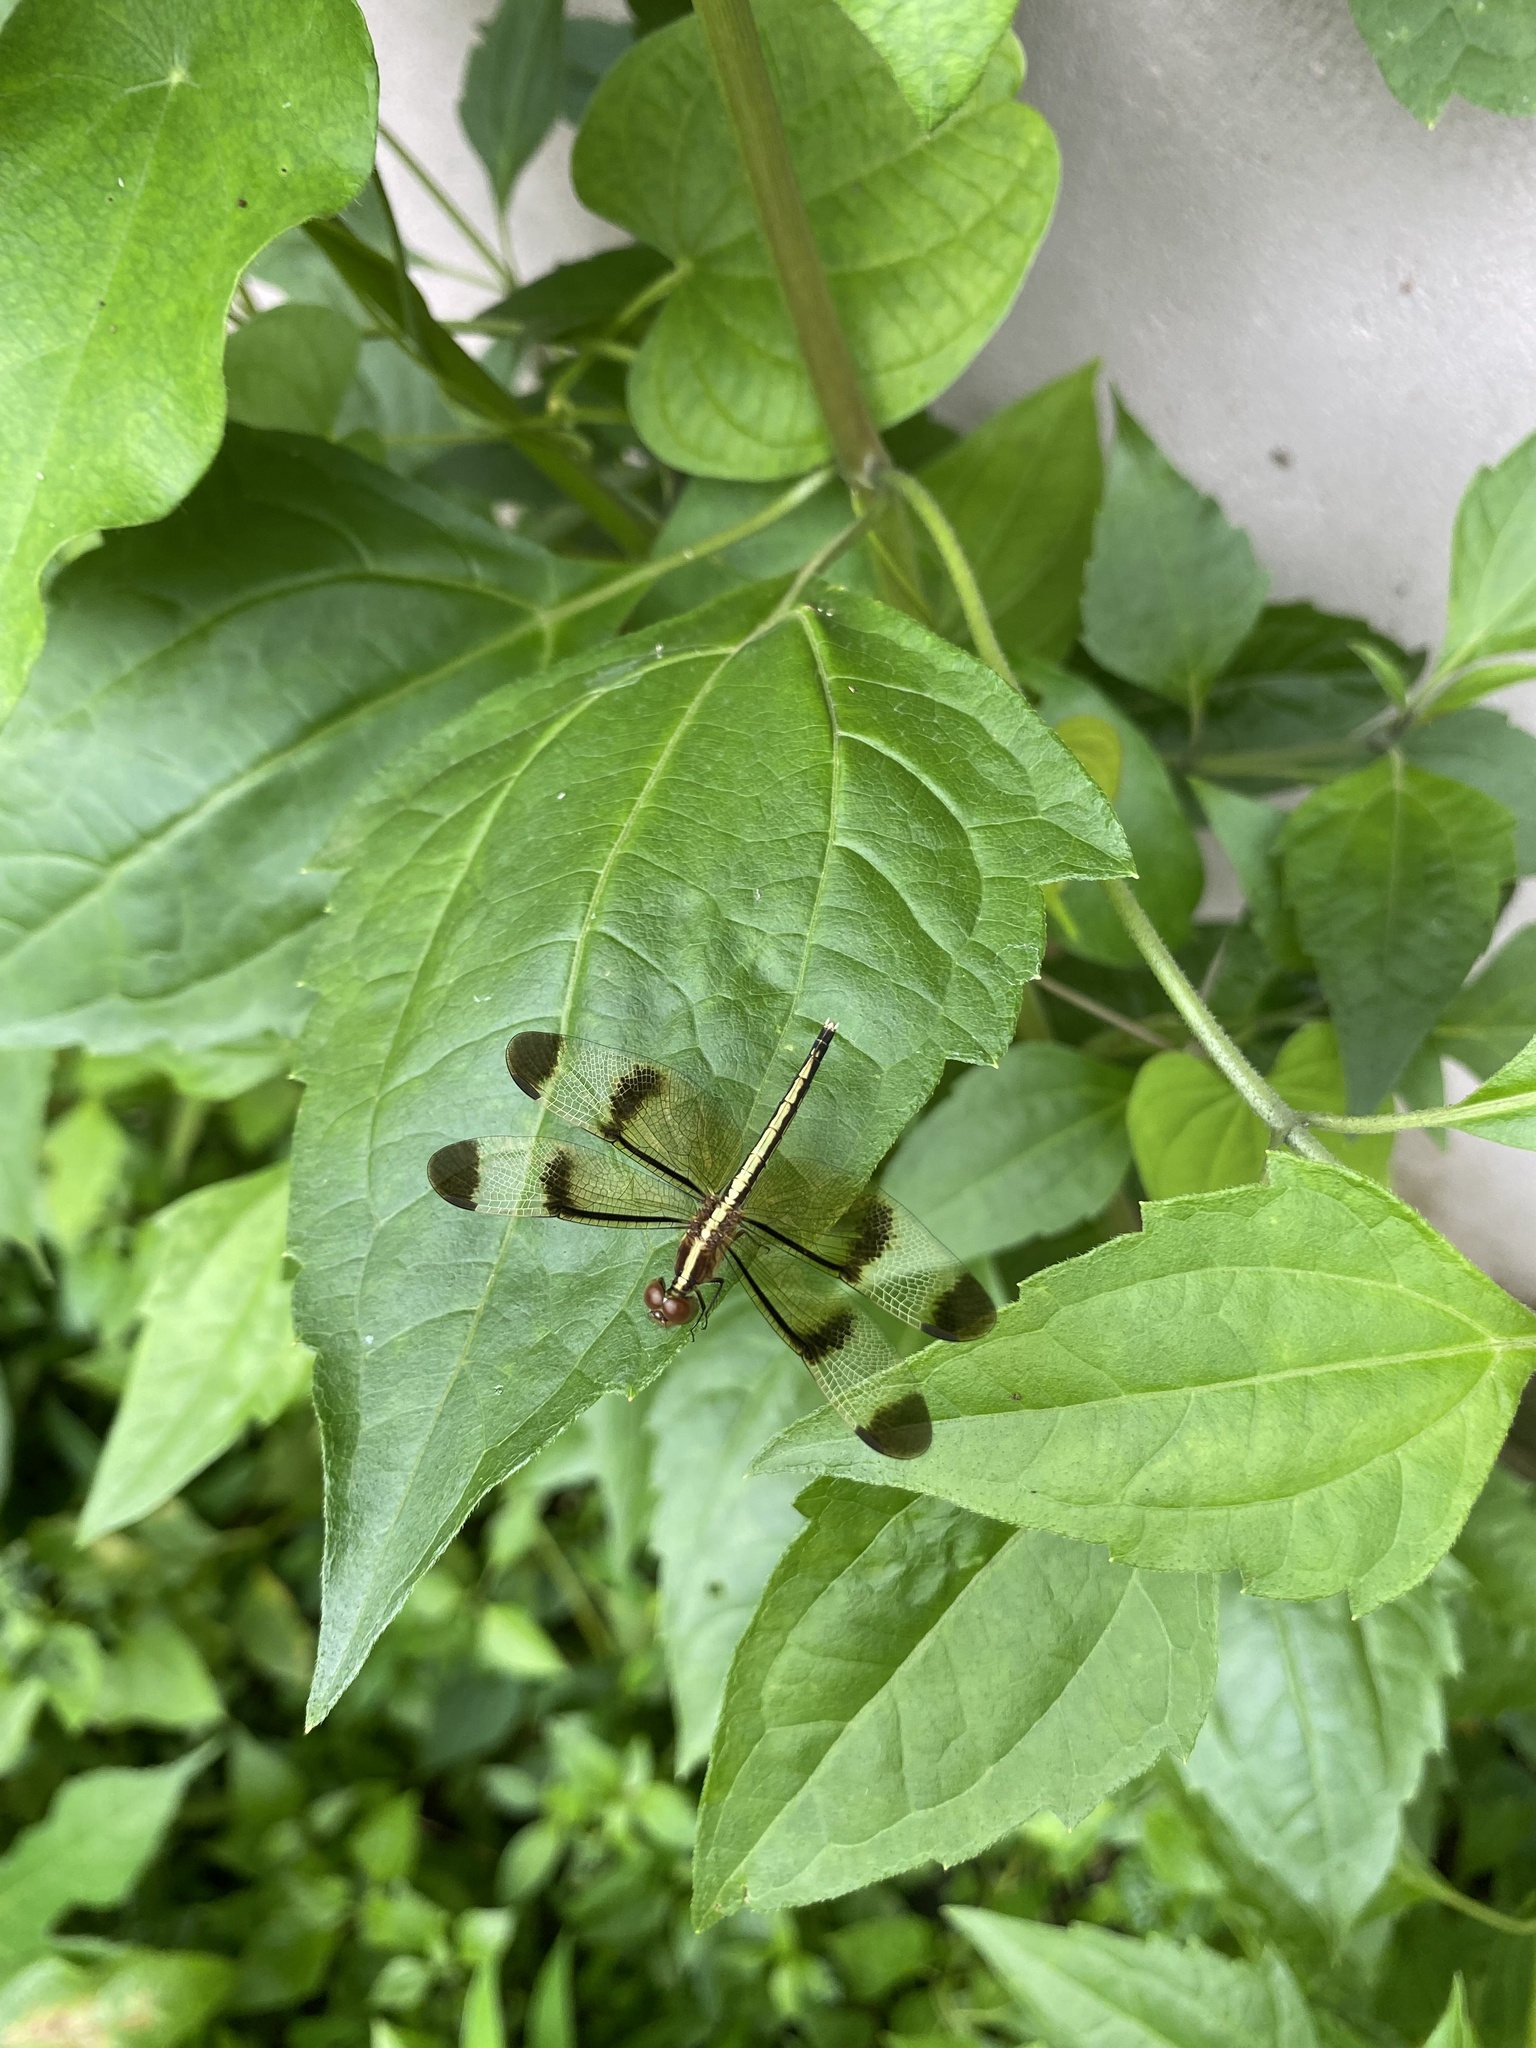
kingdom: Animalia
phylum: Arthropoda
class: Insecta
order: Odonata
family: Libellulidae
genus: Neurothemis
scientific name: Neurothemis tullia
